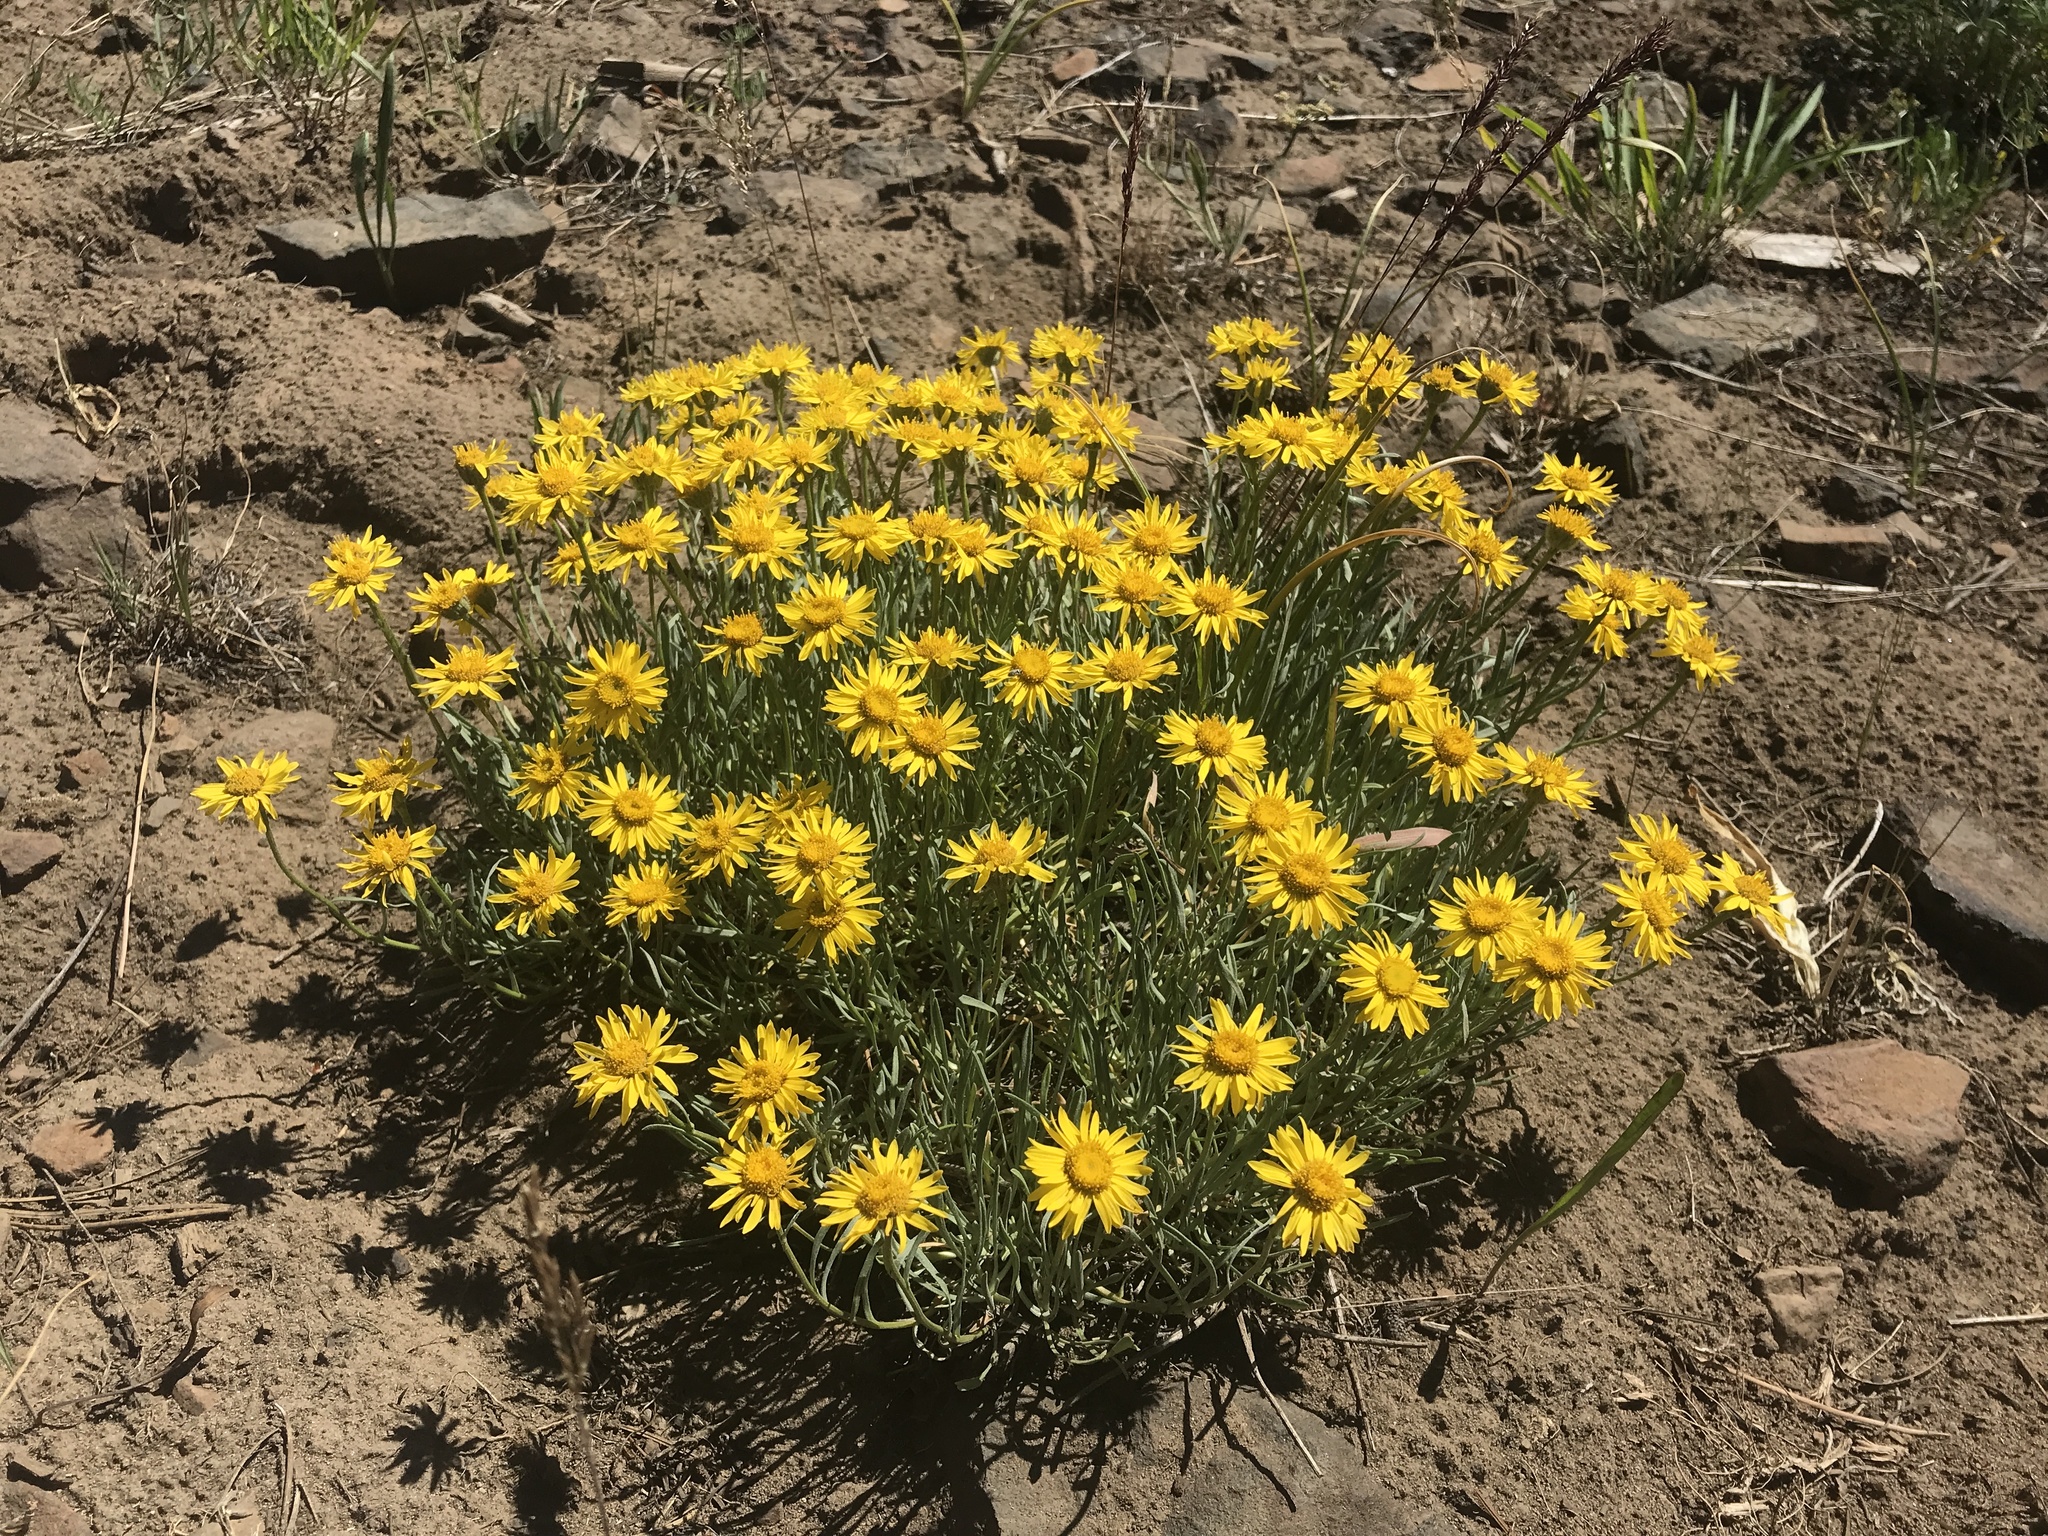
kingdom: Plantae
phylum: Tracheophyta
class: Magnoliopsida
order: Asterales
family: Asteraceae
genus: Erigeron
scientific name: Erigeron linearis
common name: Desert yellow fleabane
